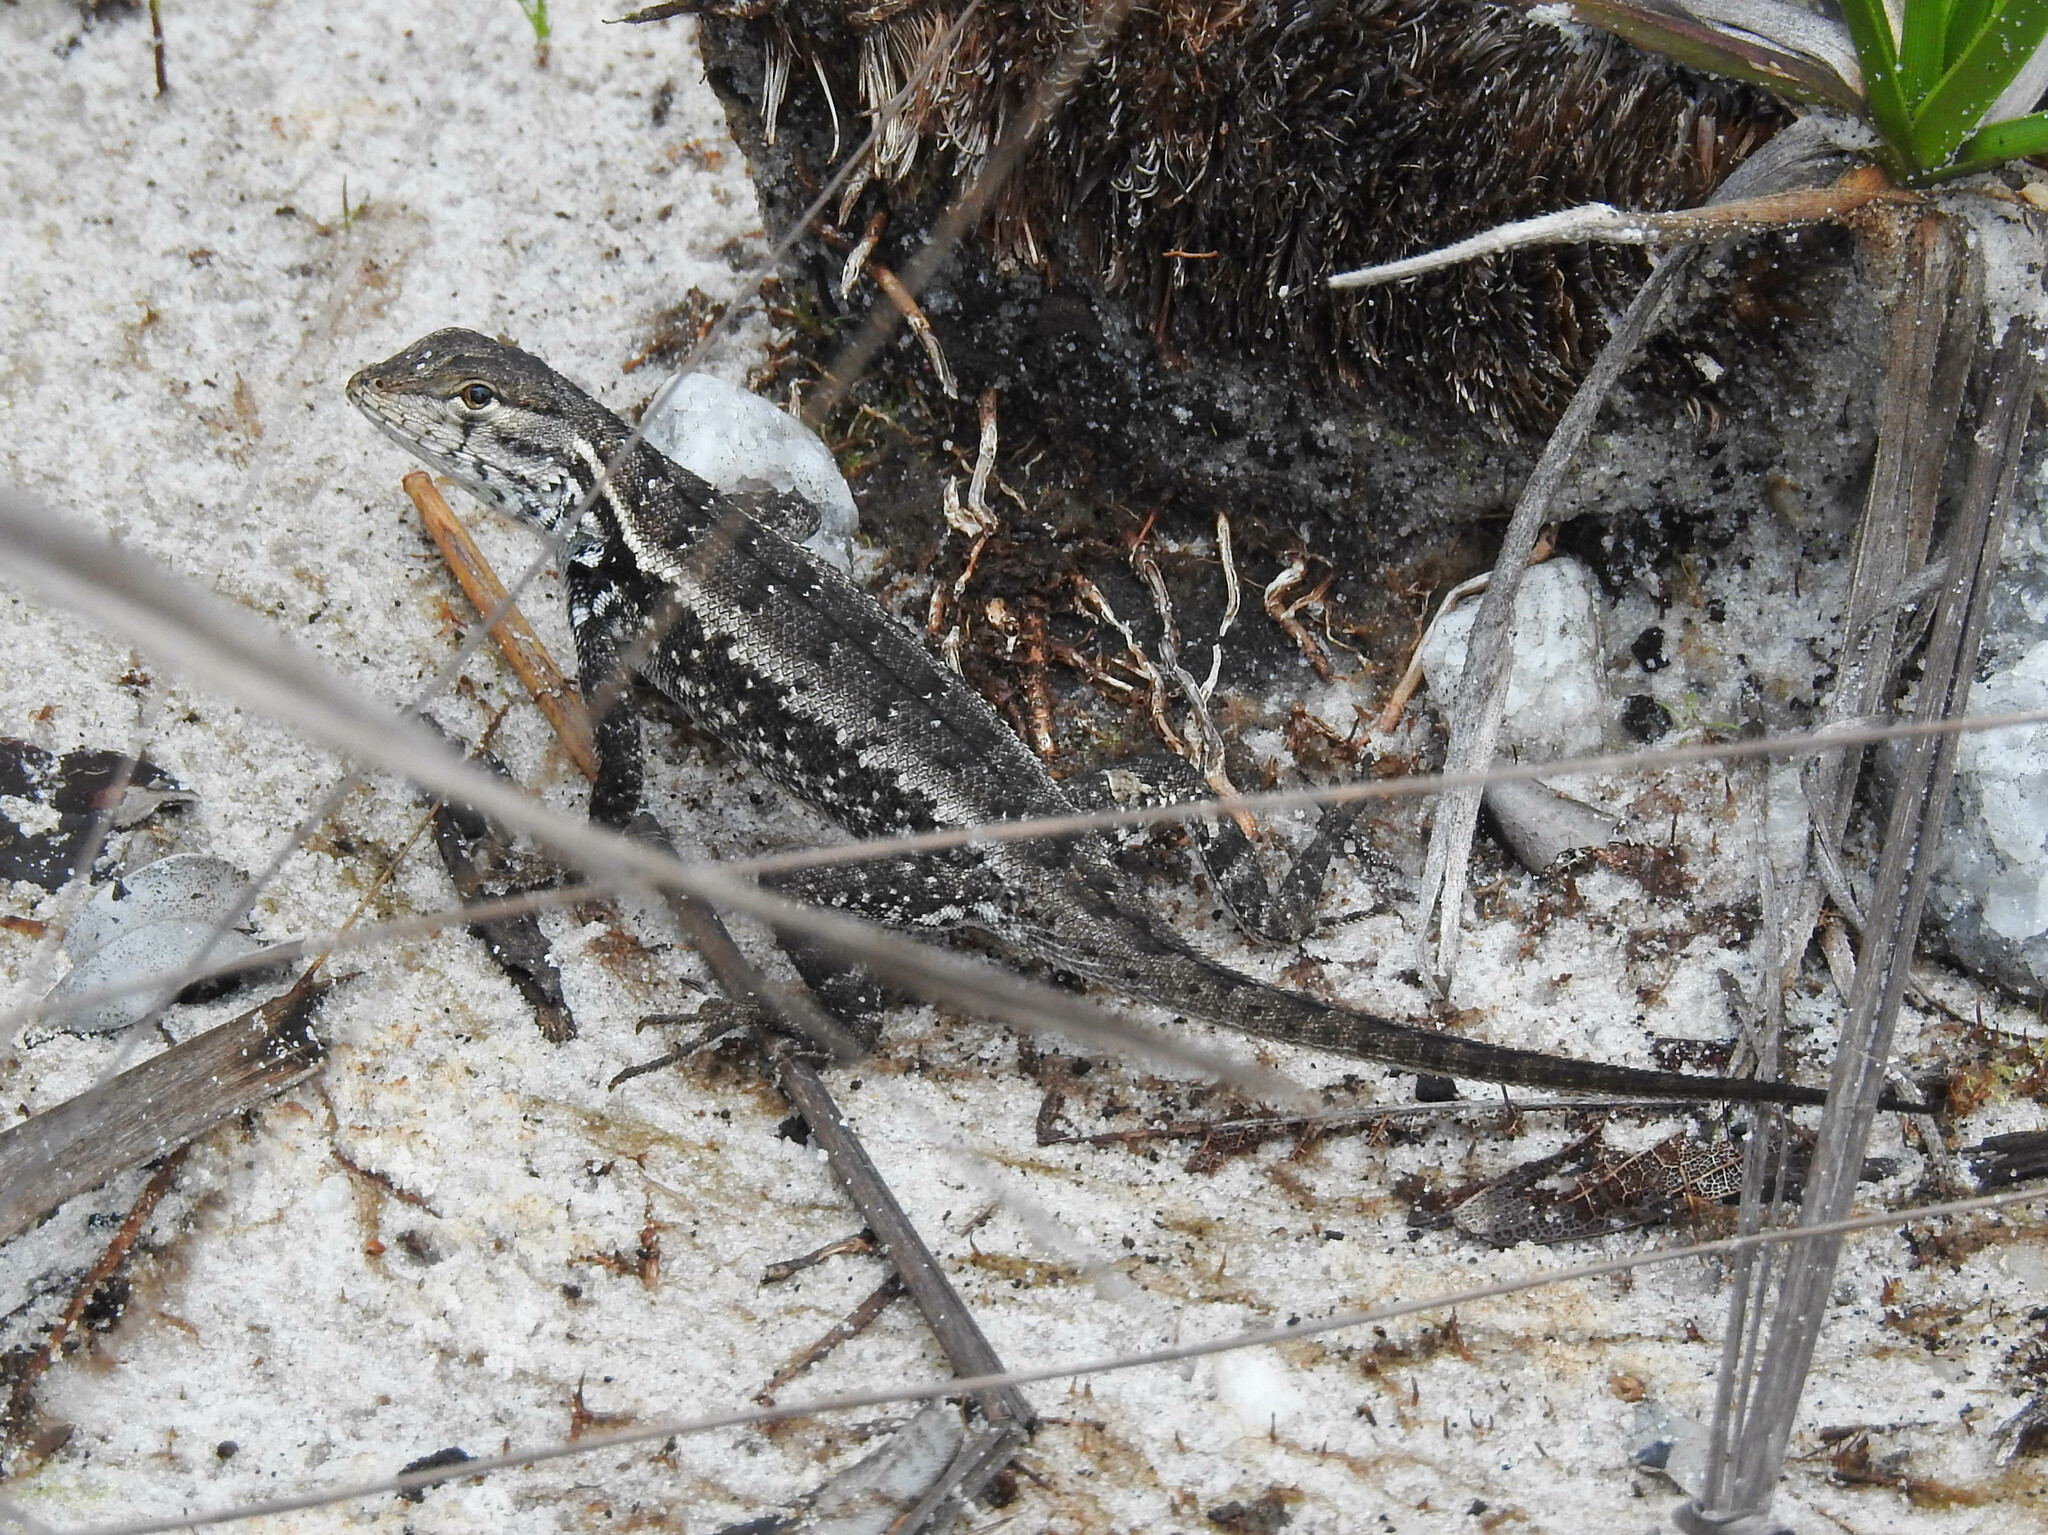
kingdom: Animalia
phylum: Chordata
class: Squamata
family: Tropiduridae
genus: Eurolophosaurus
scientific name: Eurolophosaurus nanuzae
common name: Rodrigues' lava lizard
